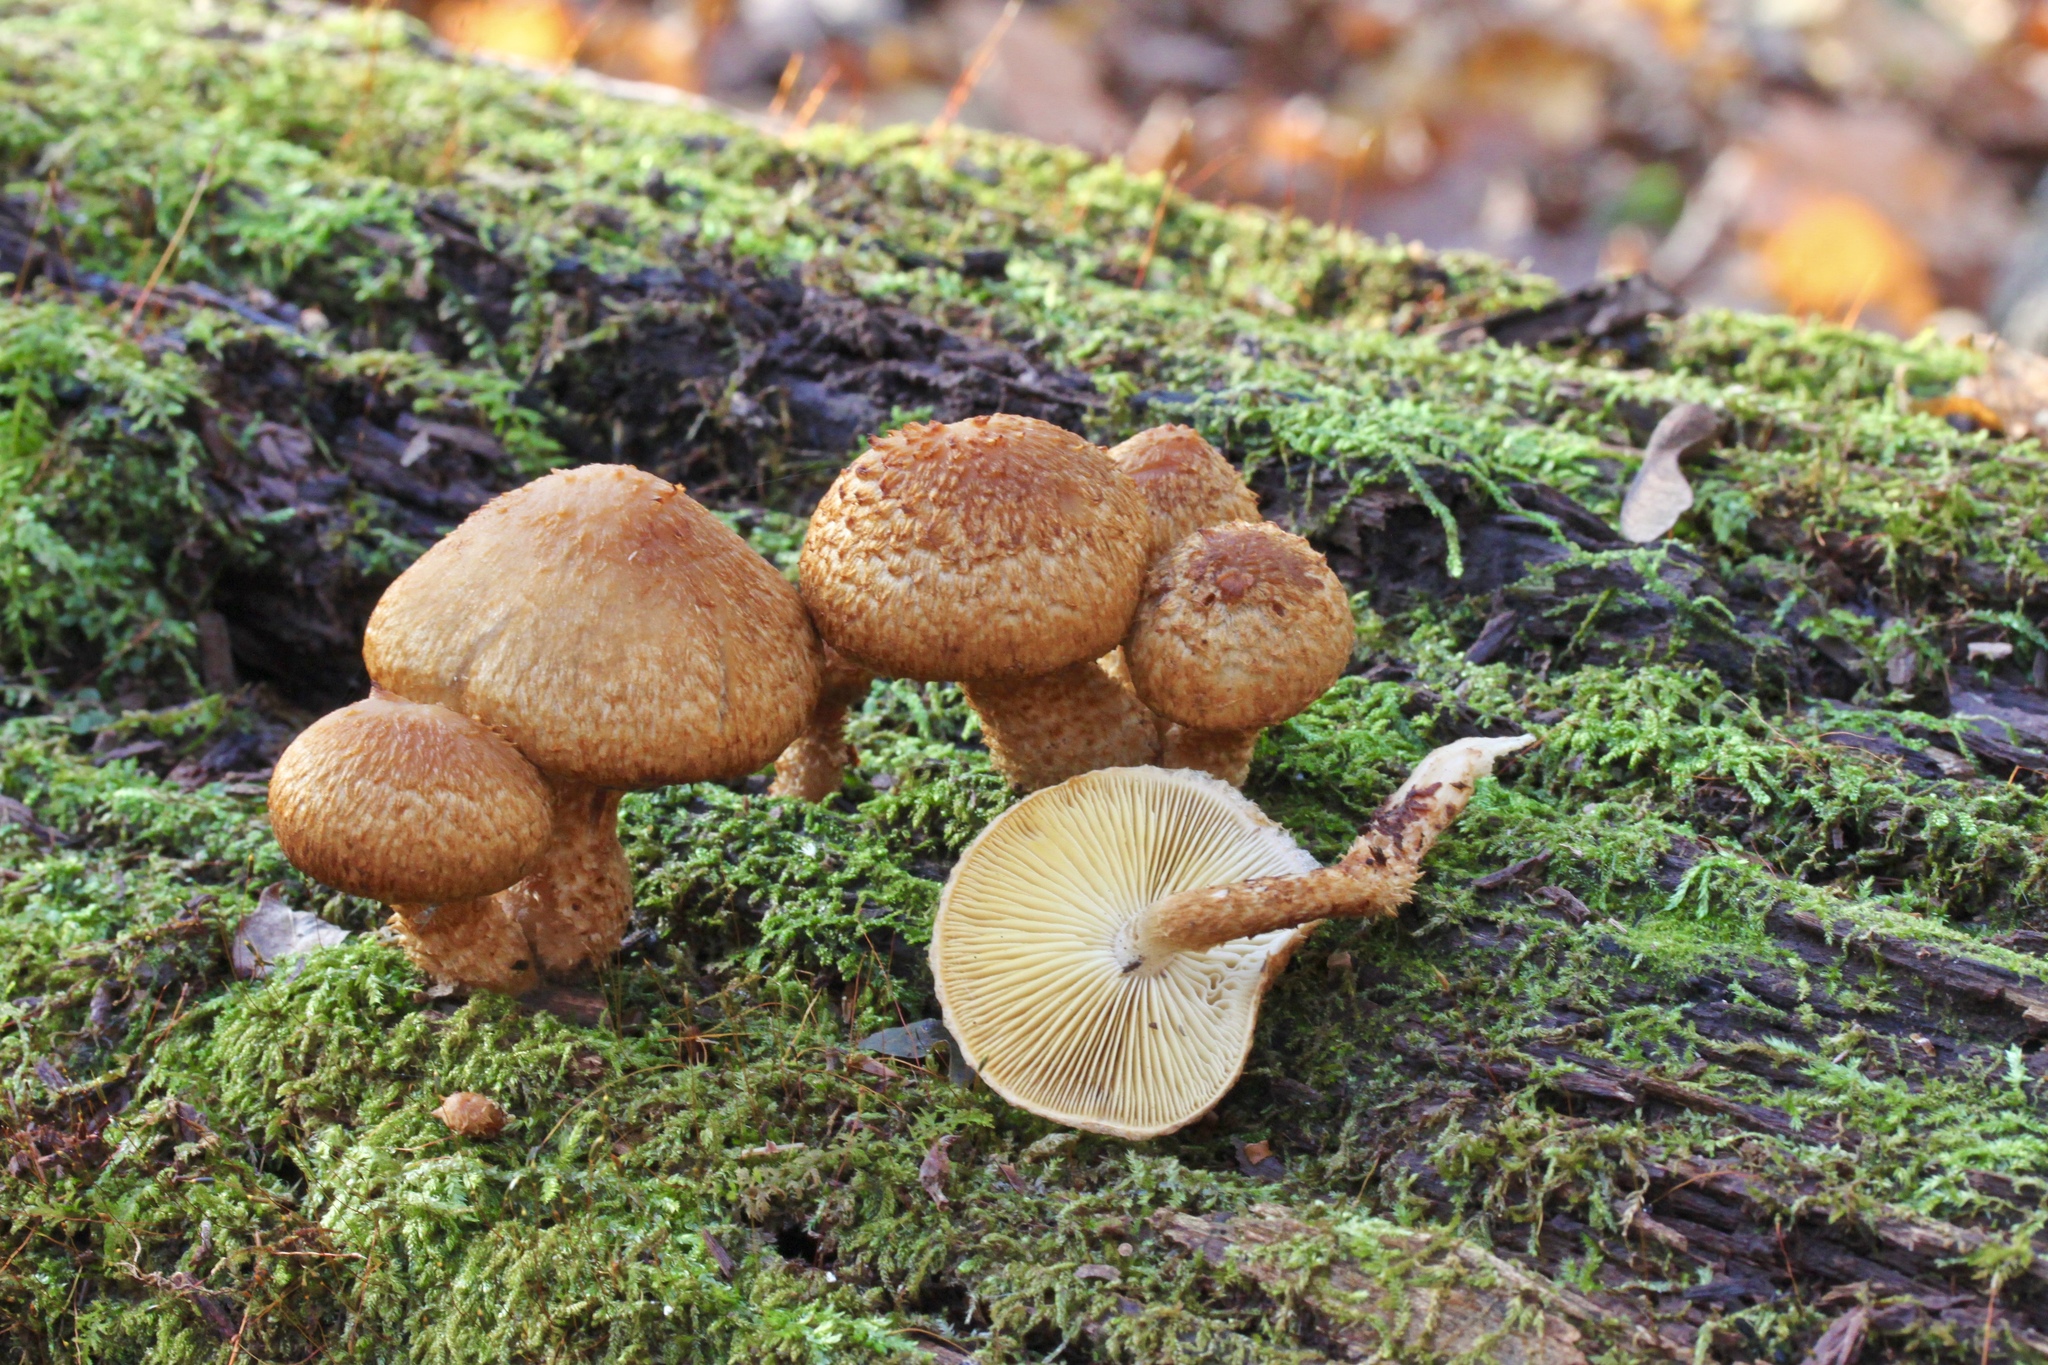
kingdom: Fungi
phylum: Basidiomycota
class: Agaricomycetes
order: Agaricales
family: Agaricaceae
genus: Leucopholiota
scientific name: Leucopholiota decorosa
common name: Decorated pholiota
